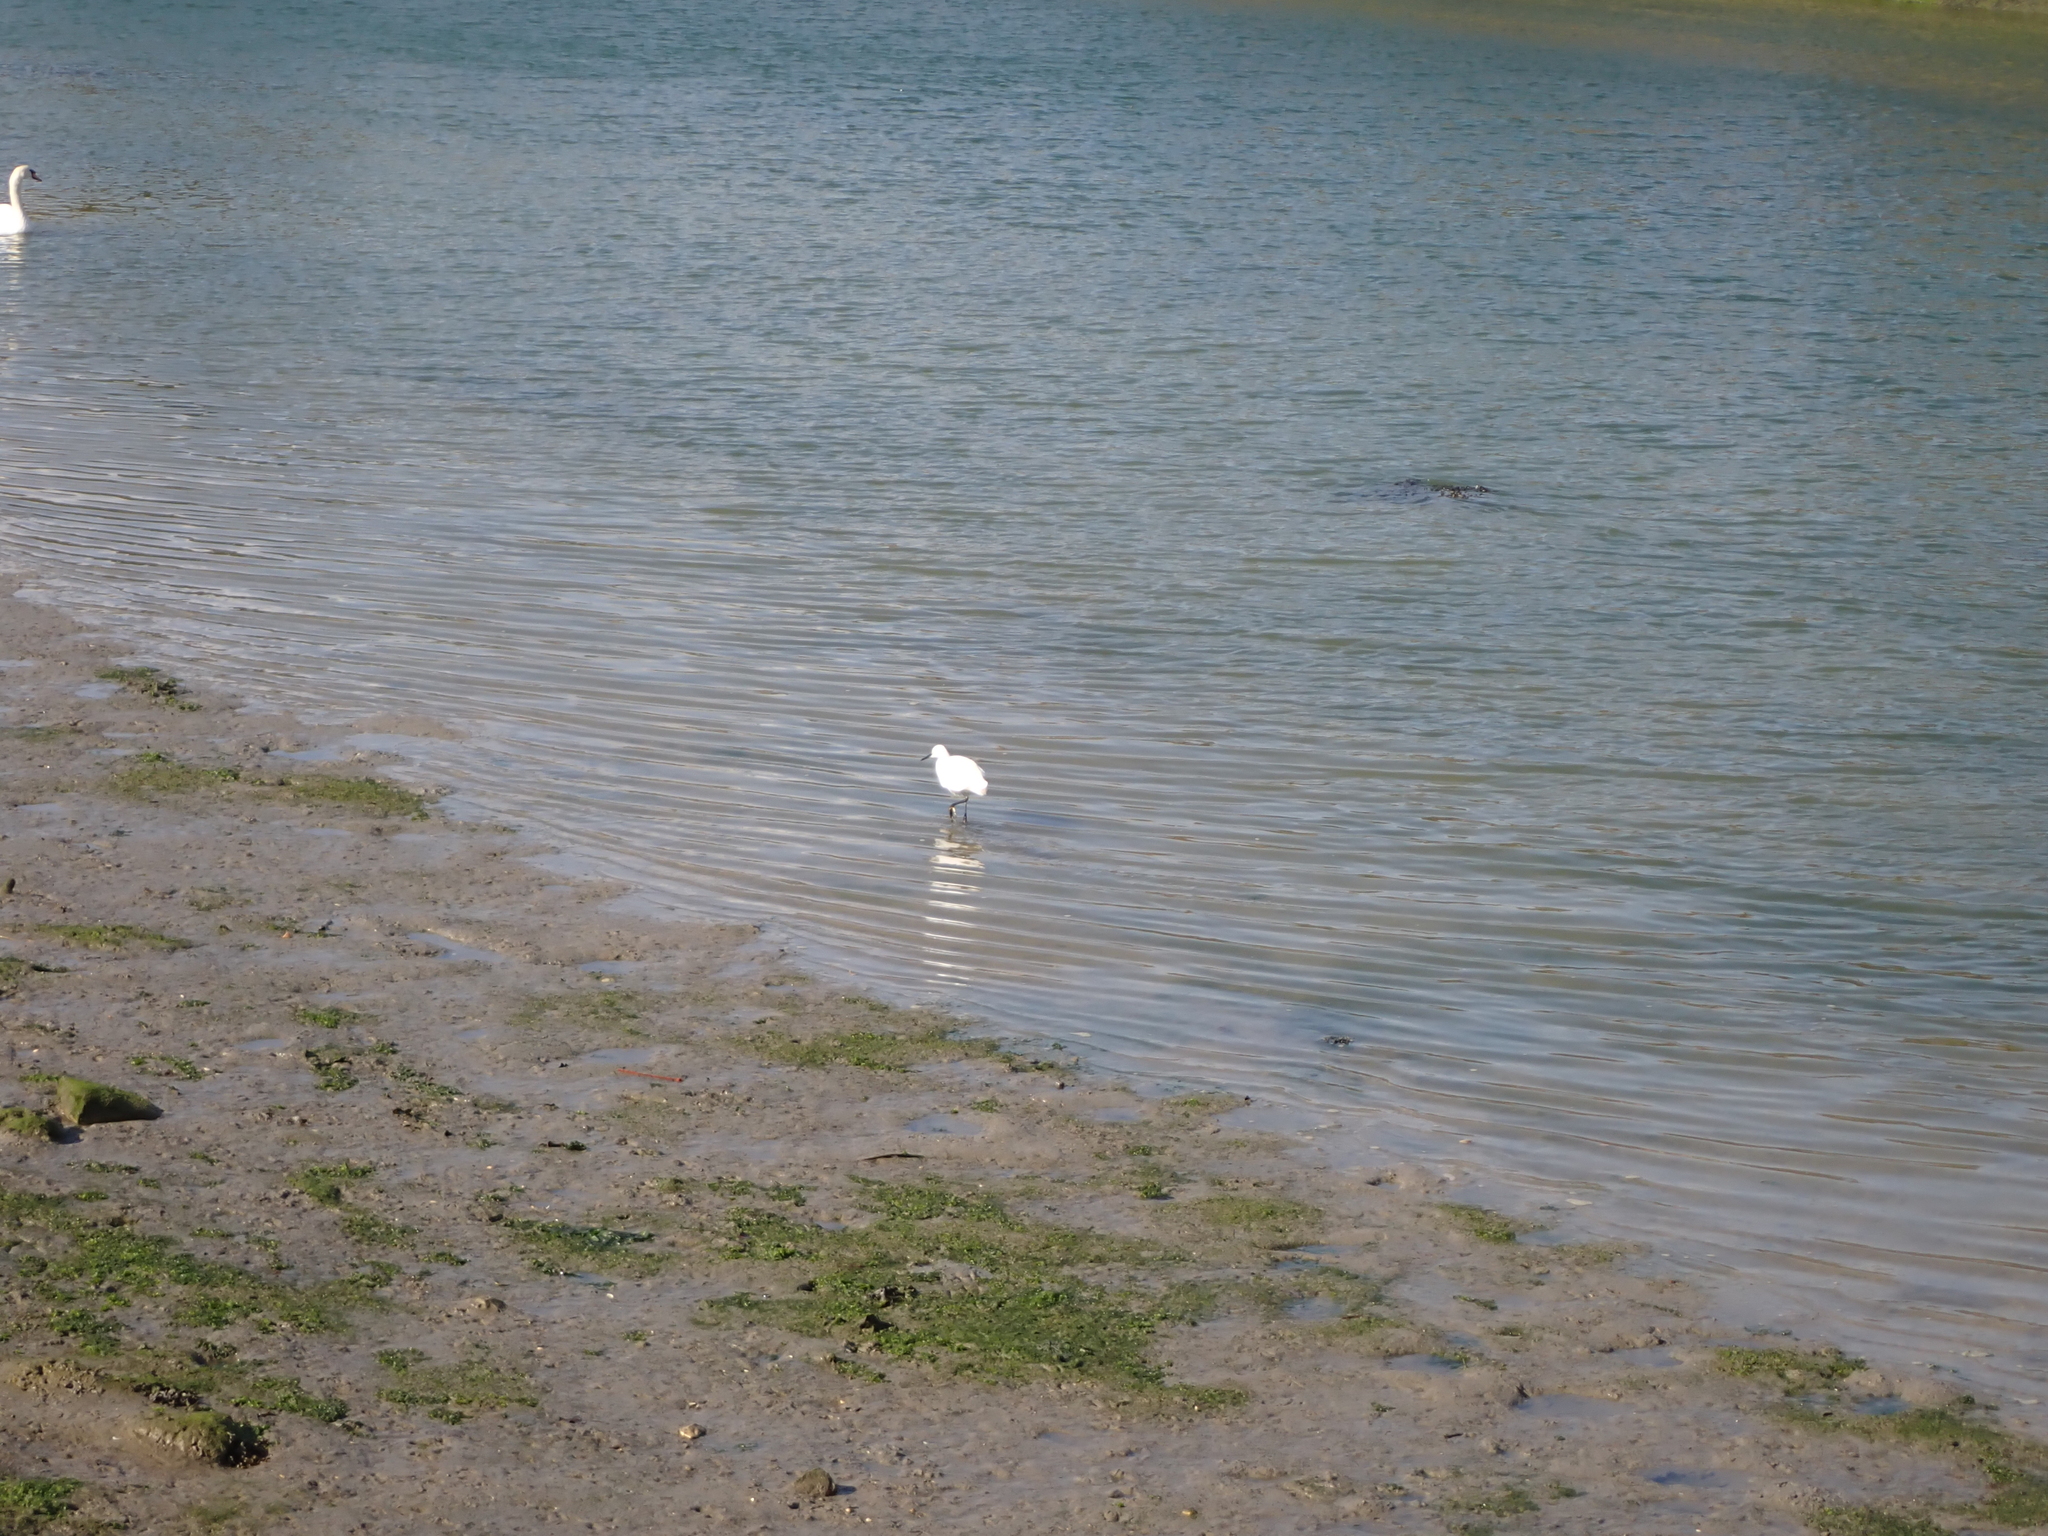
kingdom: Animalia
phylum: Chordata
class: Aves
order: Pelecaniformes
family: Ardeidae
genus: Egretta
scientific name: Egretta garzetta
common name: Little egret
